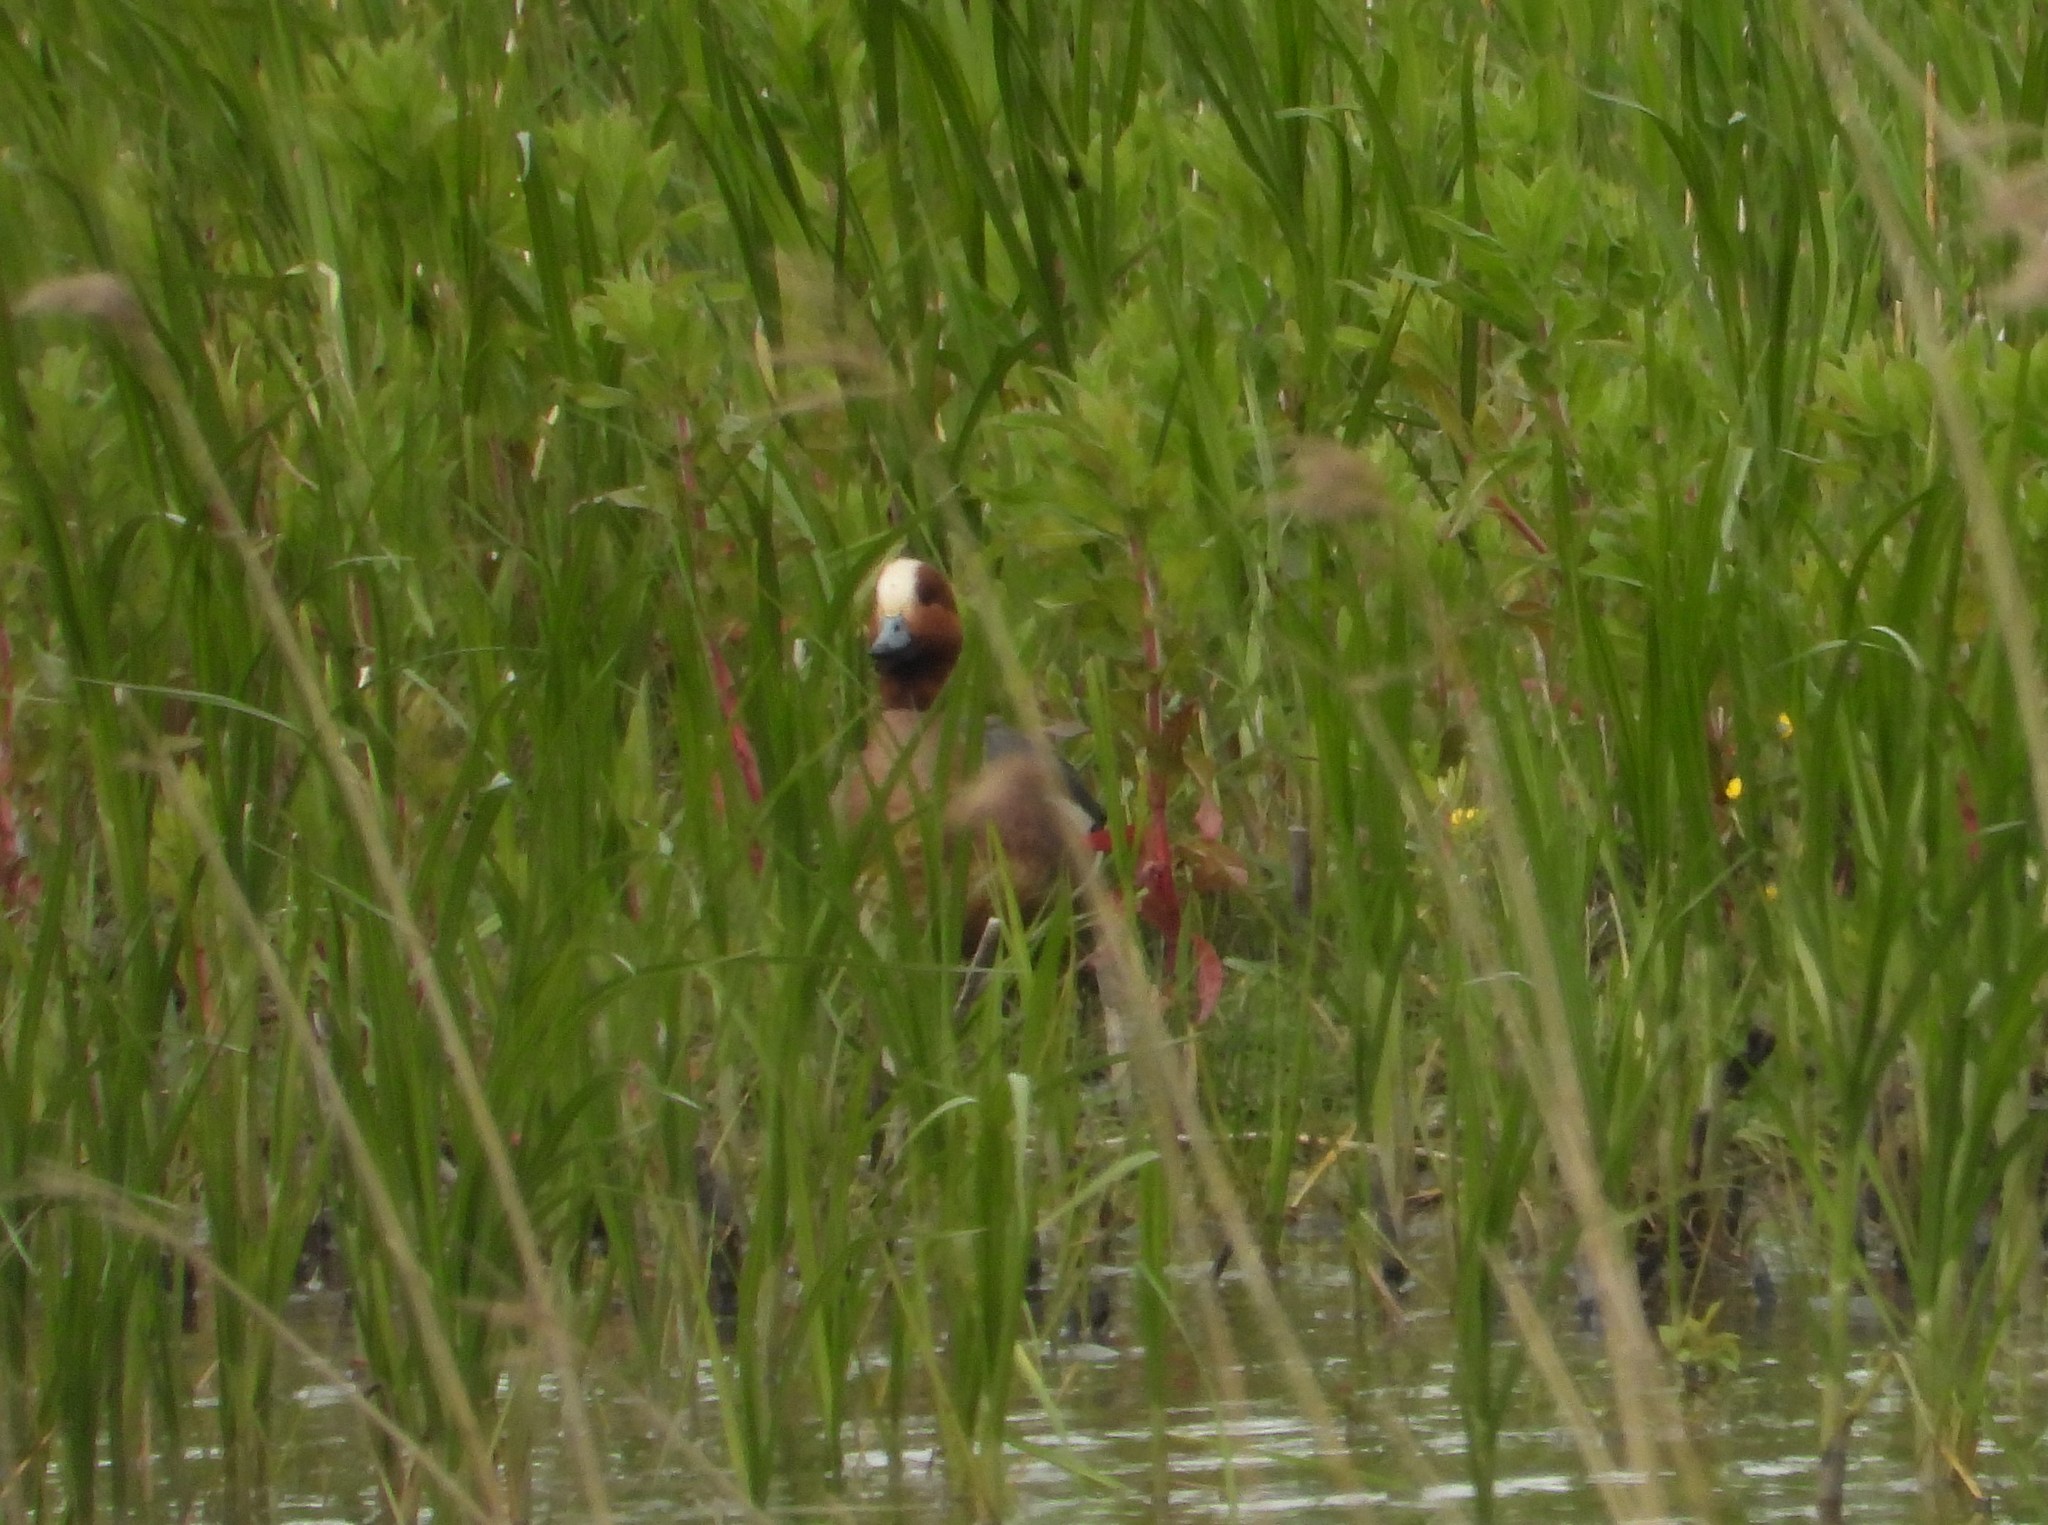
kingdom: Animalia
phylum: Chordata
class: Aves
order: Anseriformes
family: Anatidae
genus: Mareca
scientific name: Mareca penelope
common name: Eurasian wigeon
